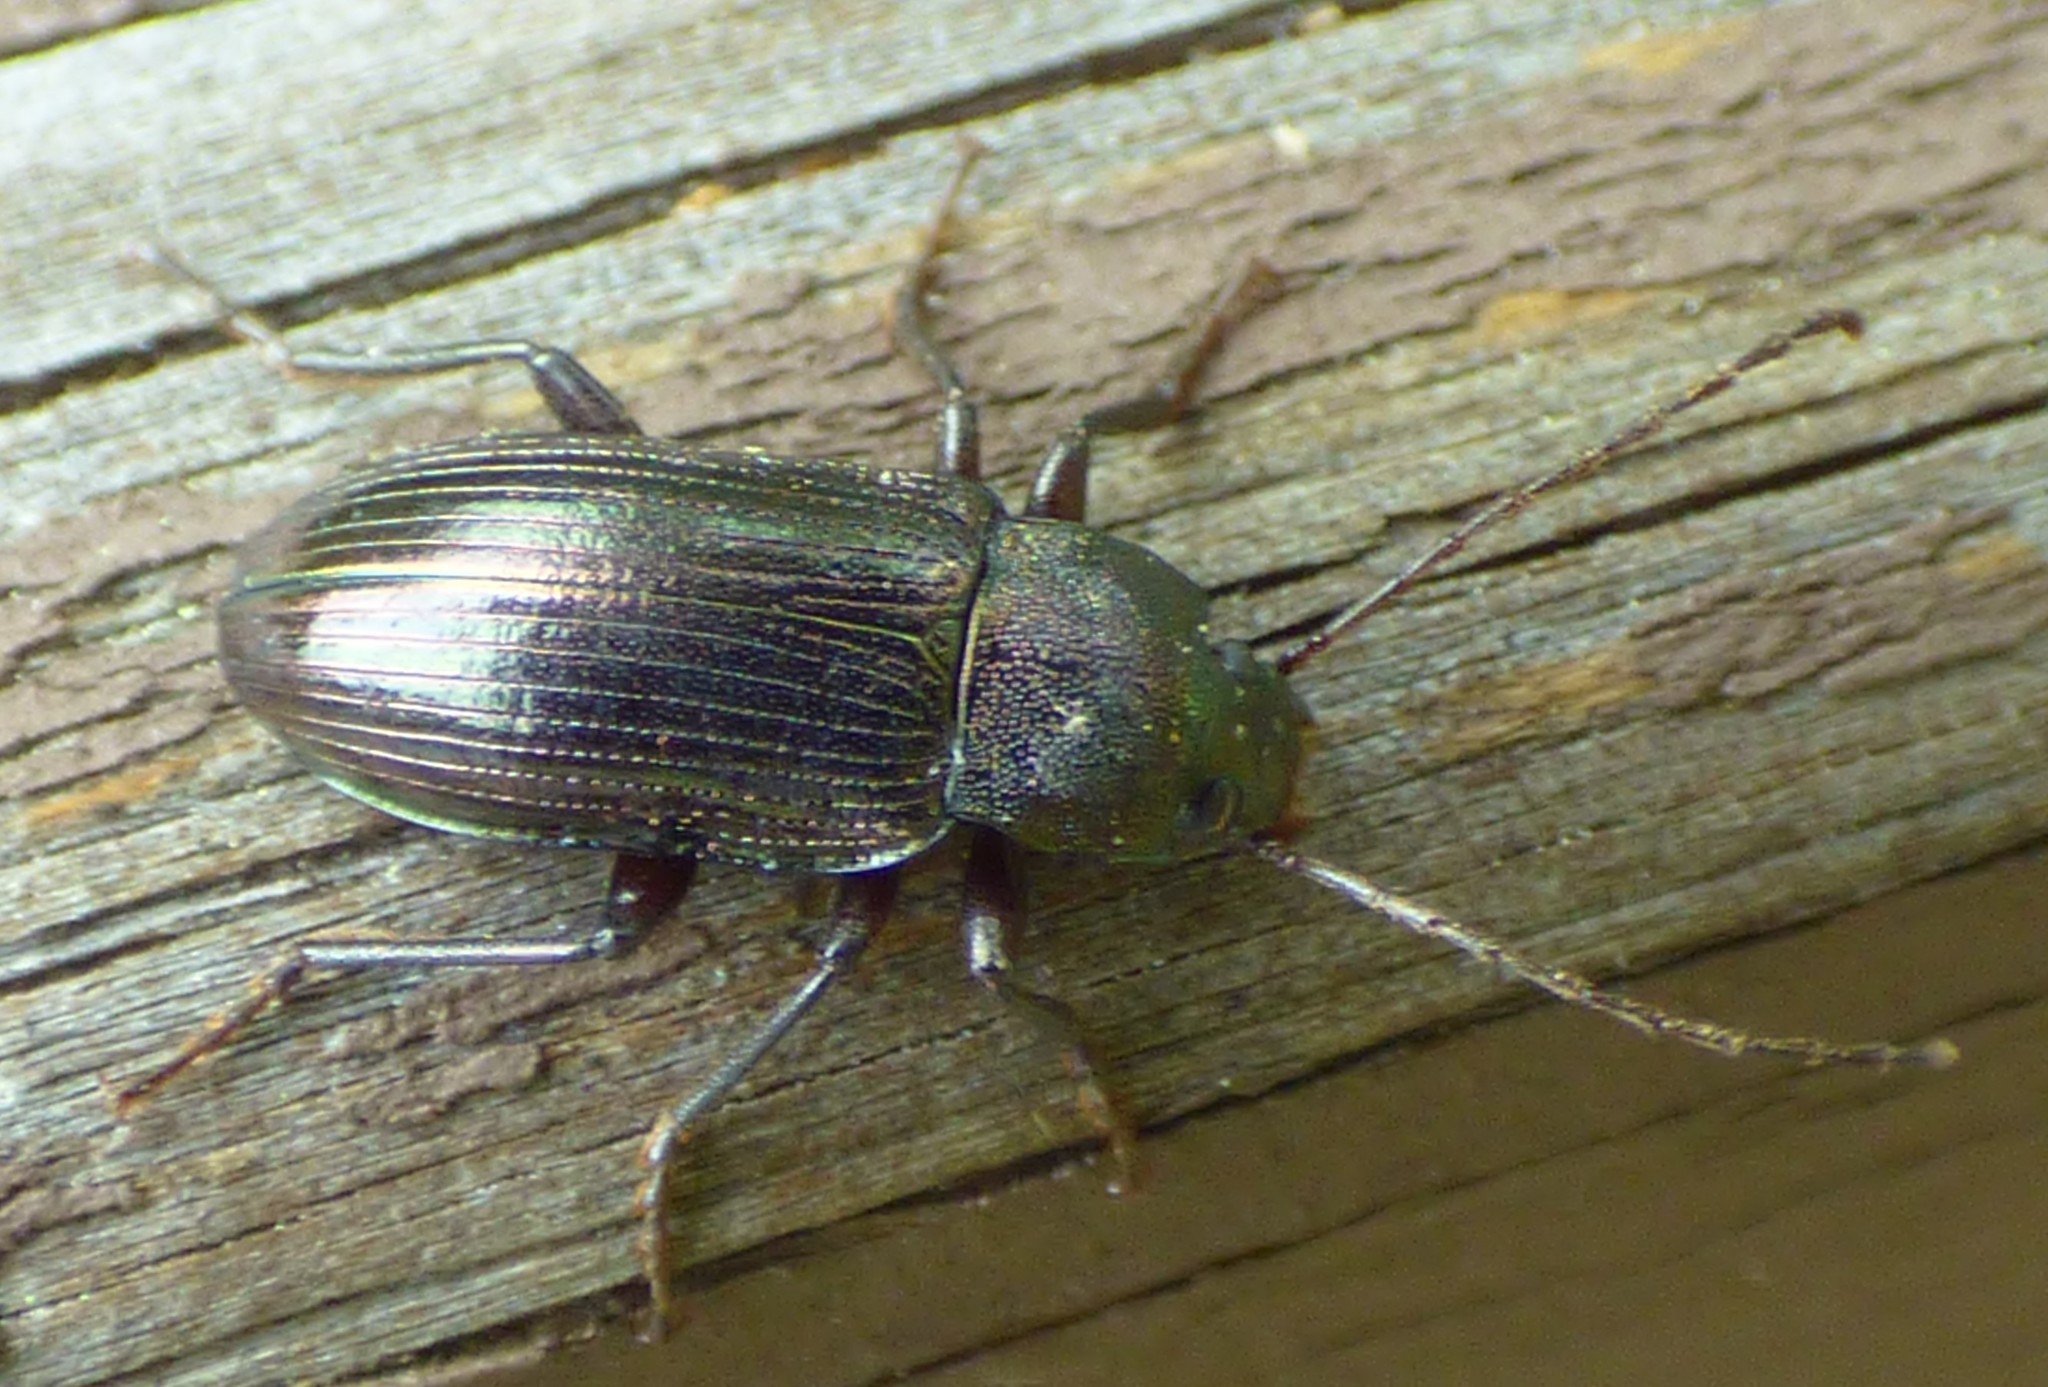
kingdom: Animalia
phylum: Arthropoda
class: Insecta
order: Coleoptera
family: Tenebrionidae
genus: Tarpela
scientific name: Tarpela undulata
